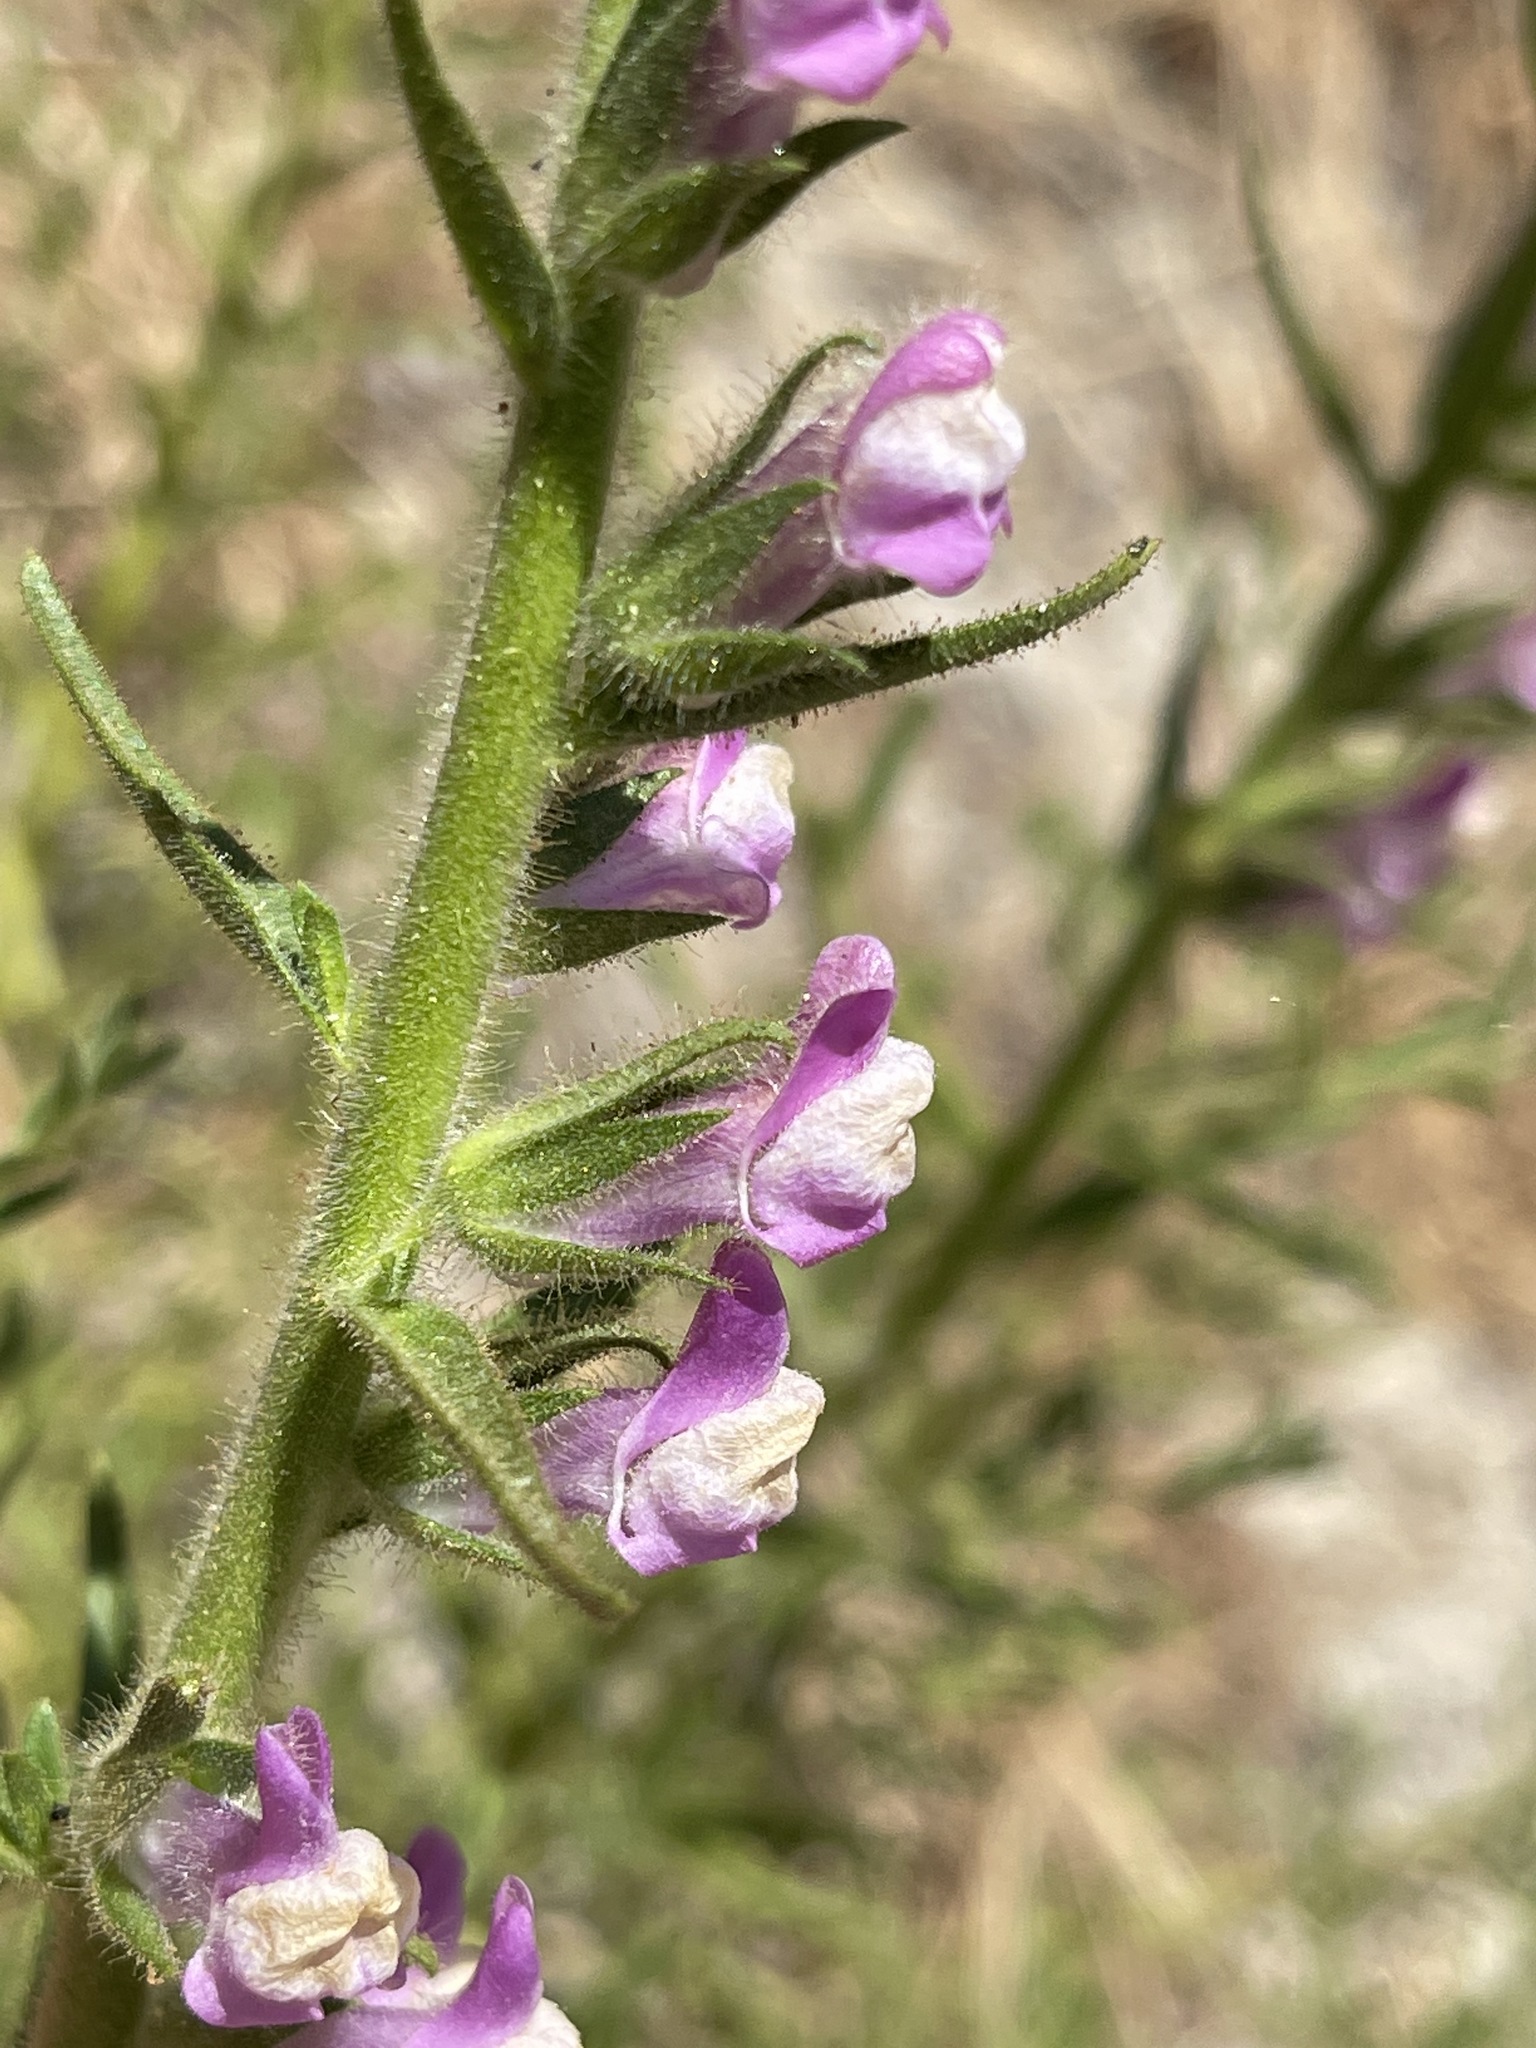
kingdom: Plantae
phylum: Tracheophyta
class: Magnoliopsida
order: Lamiales
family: Plantaginaceae
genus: Sairocarpus
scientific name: Sairocarpus multiflorus
